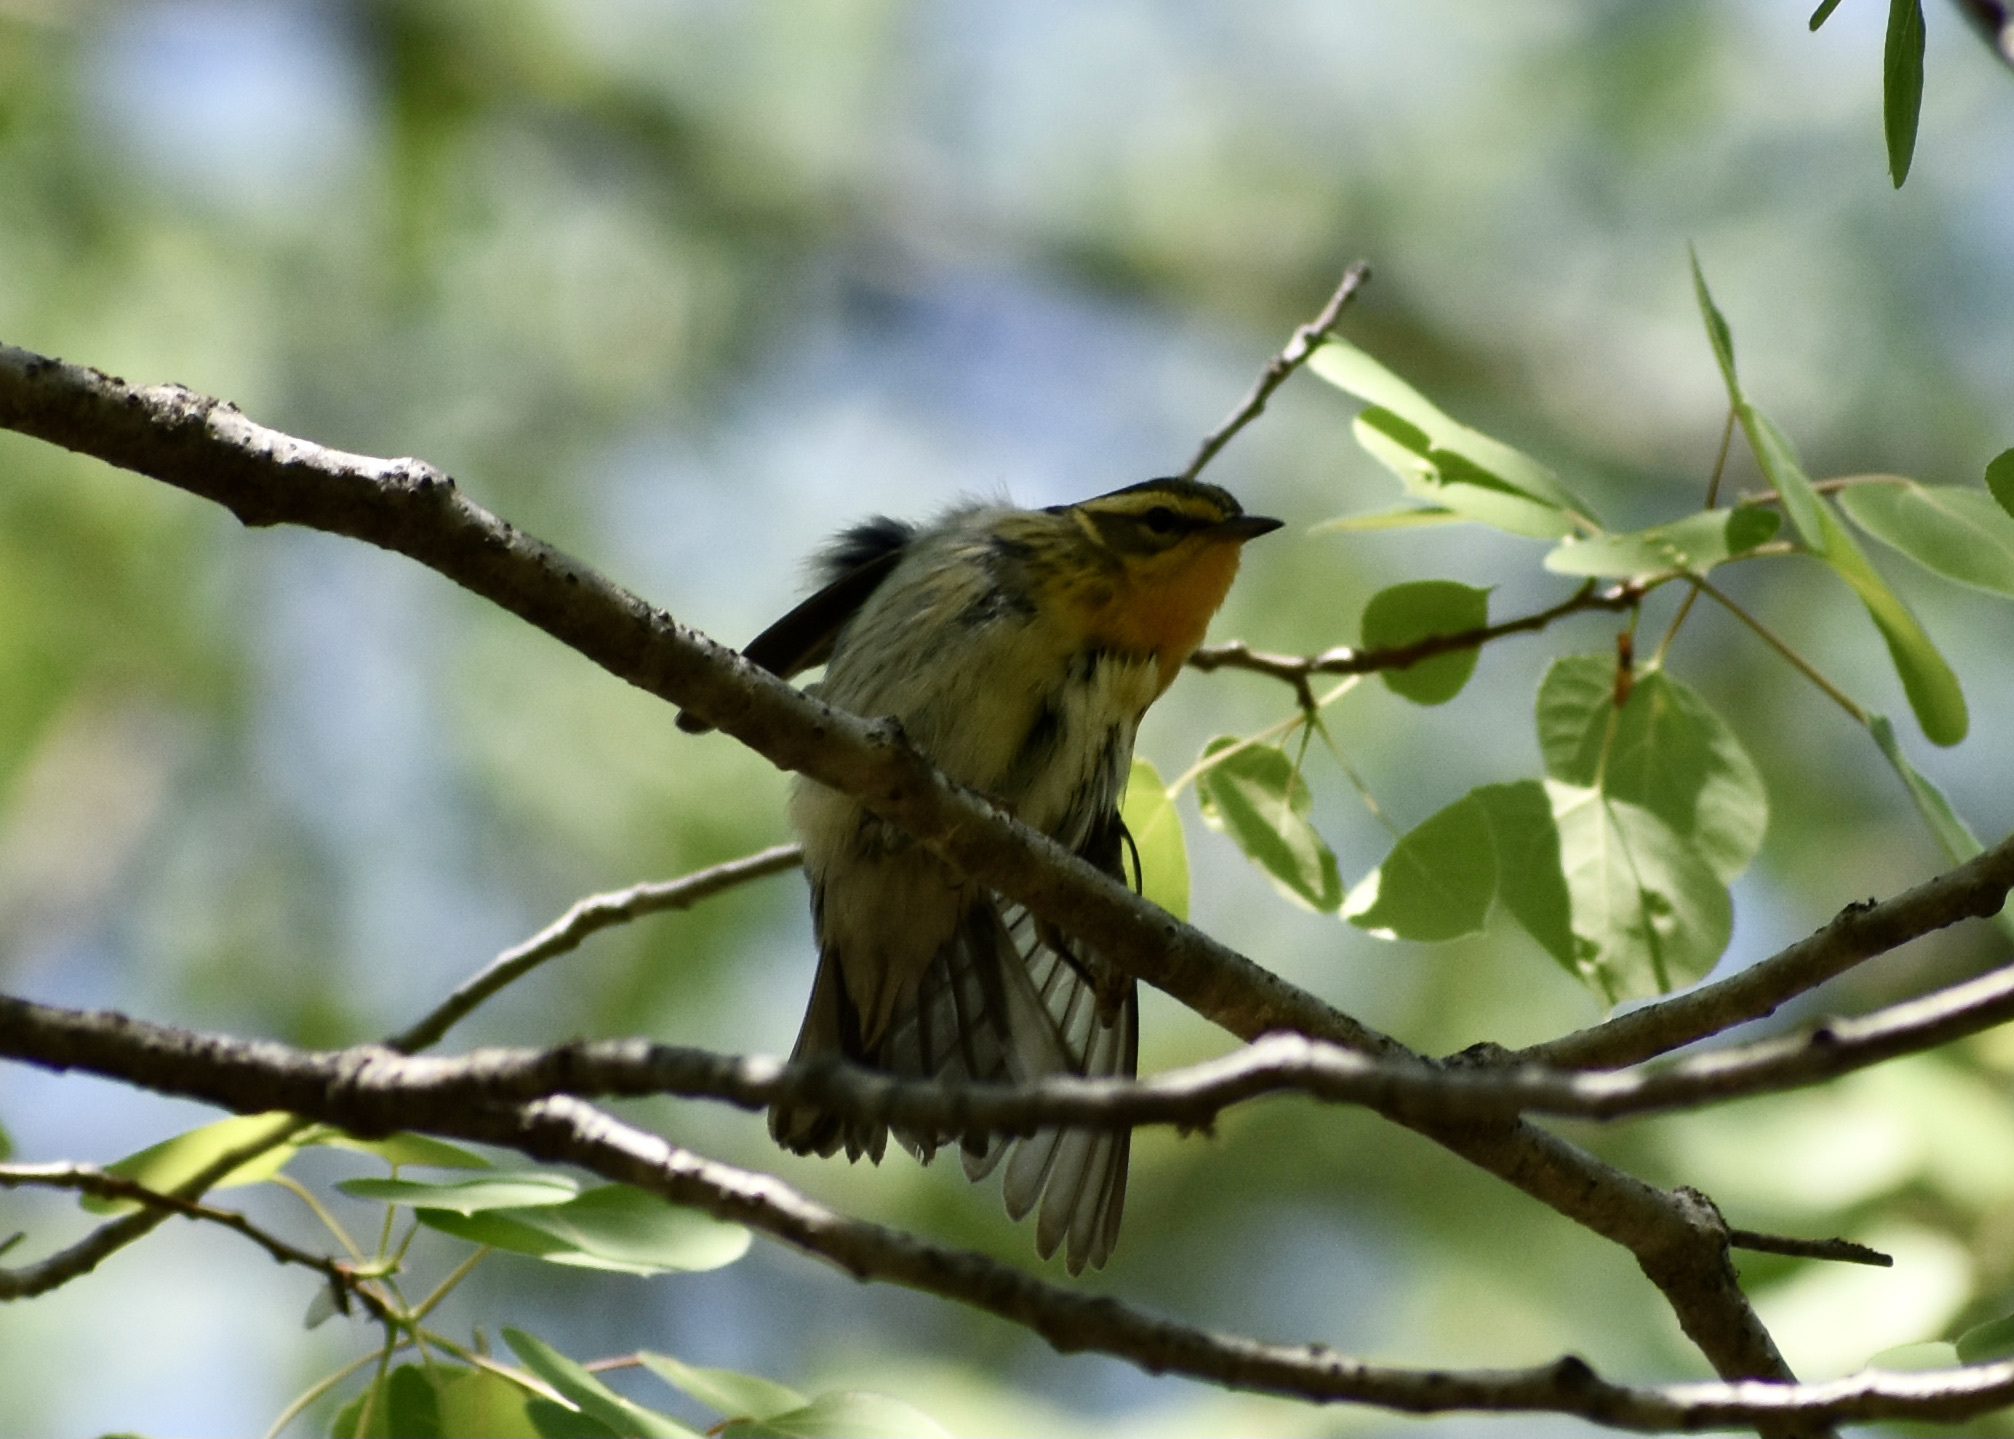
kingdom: Animalia
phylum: Chordata
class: Aves
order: Passeriformes
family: Parulidae
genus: Setophaga
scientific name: Setophaga fusca
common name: Blackburnian warbler
